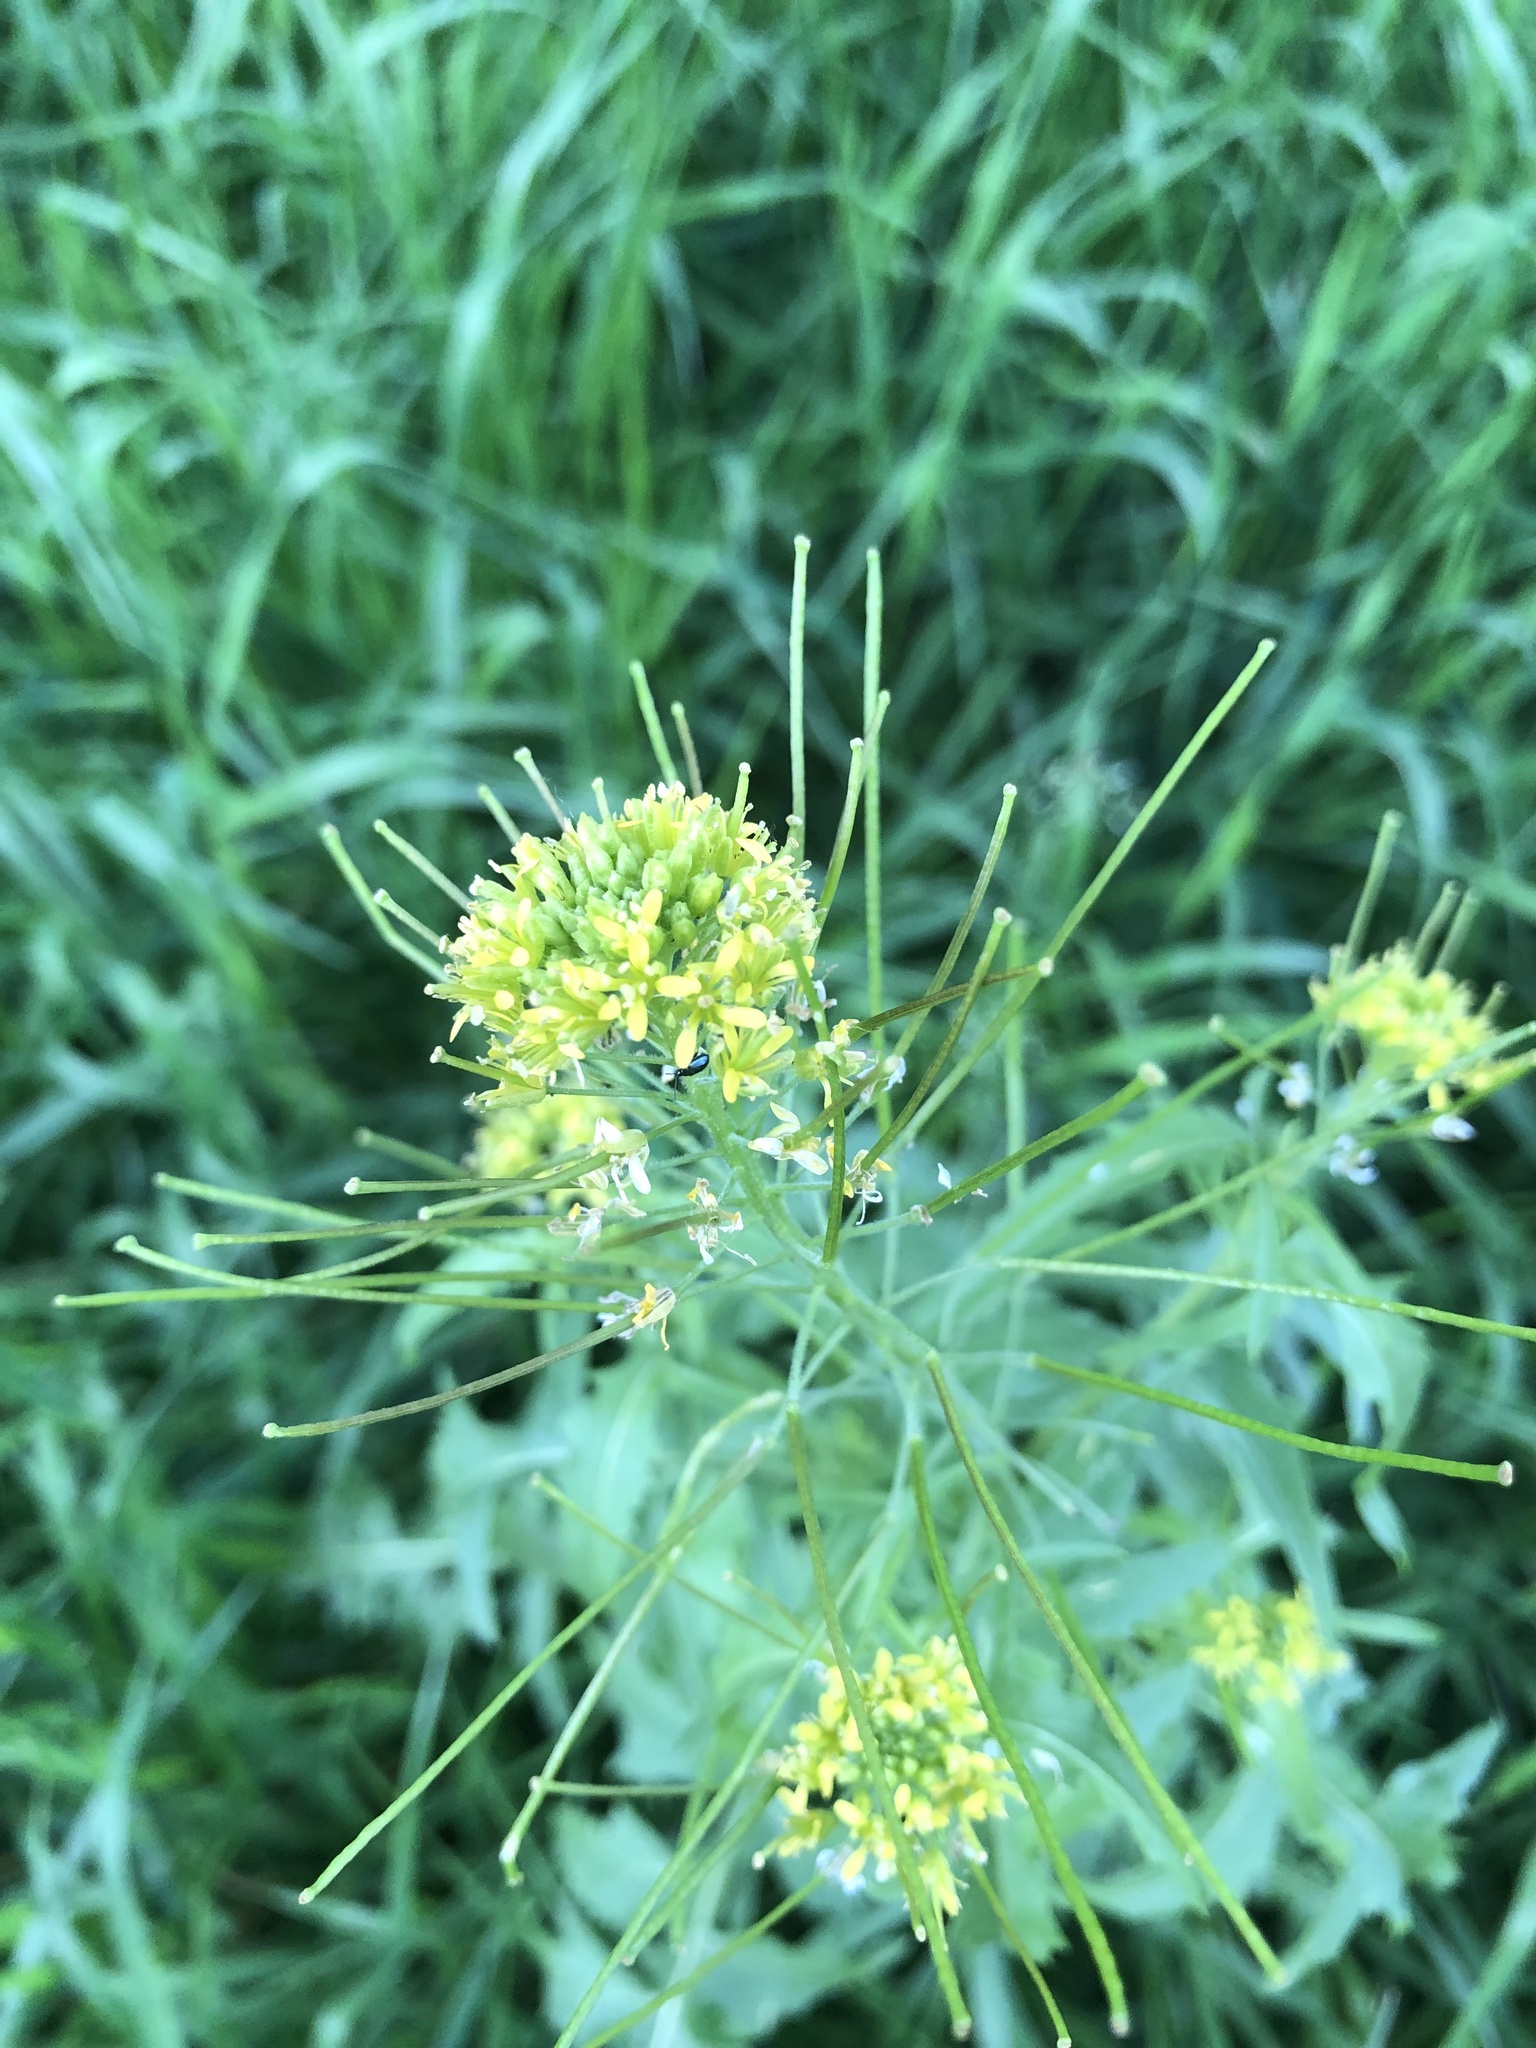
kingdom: Plantae
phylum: Tracheophyta
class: Magnoliopsida
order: Brassicales
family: Brassicaceae
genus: Sisymbrium
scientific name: Sisymbrium irio
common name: London rocket
